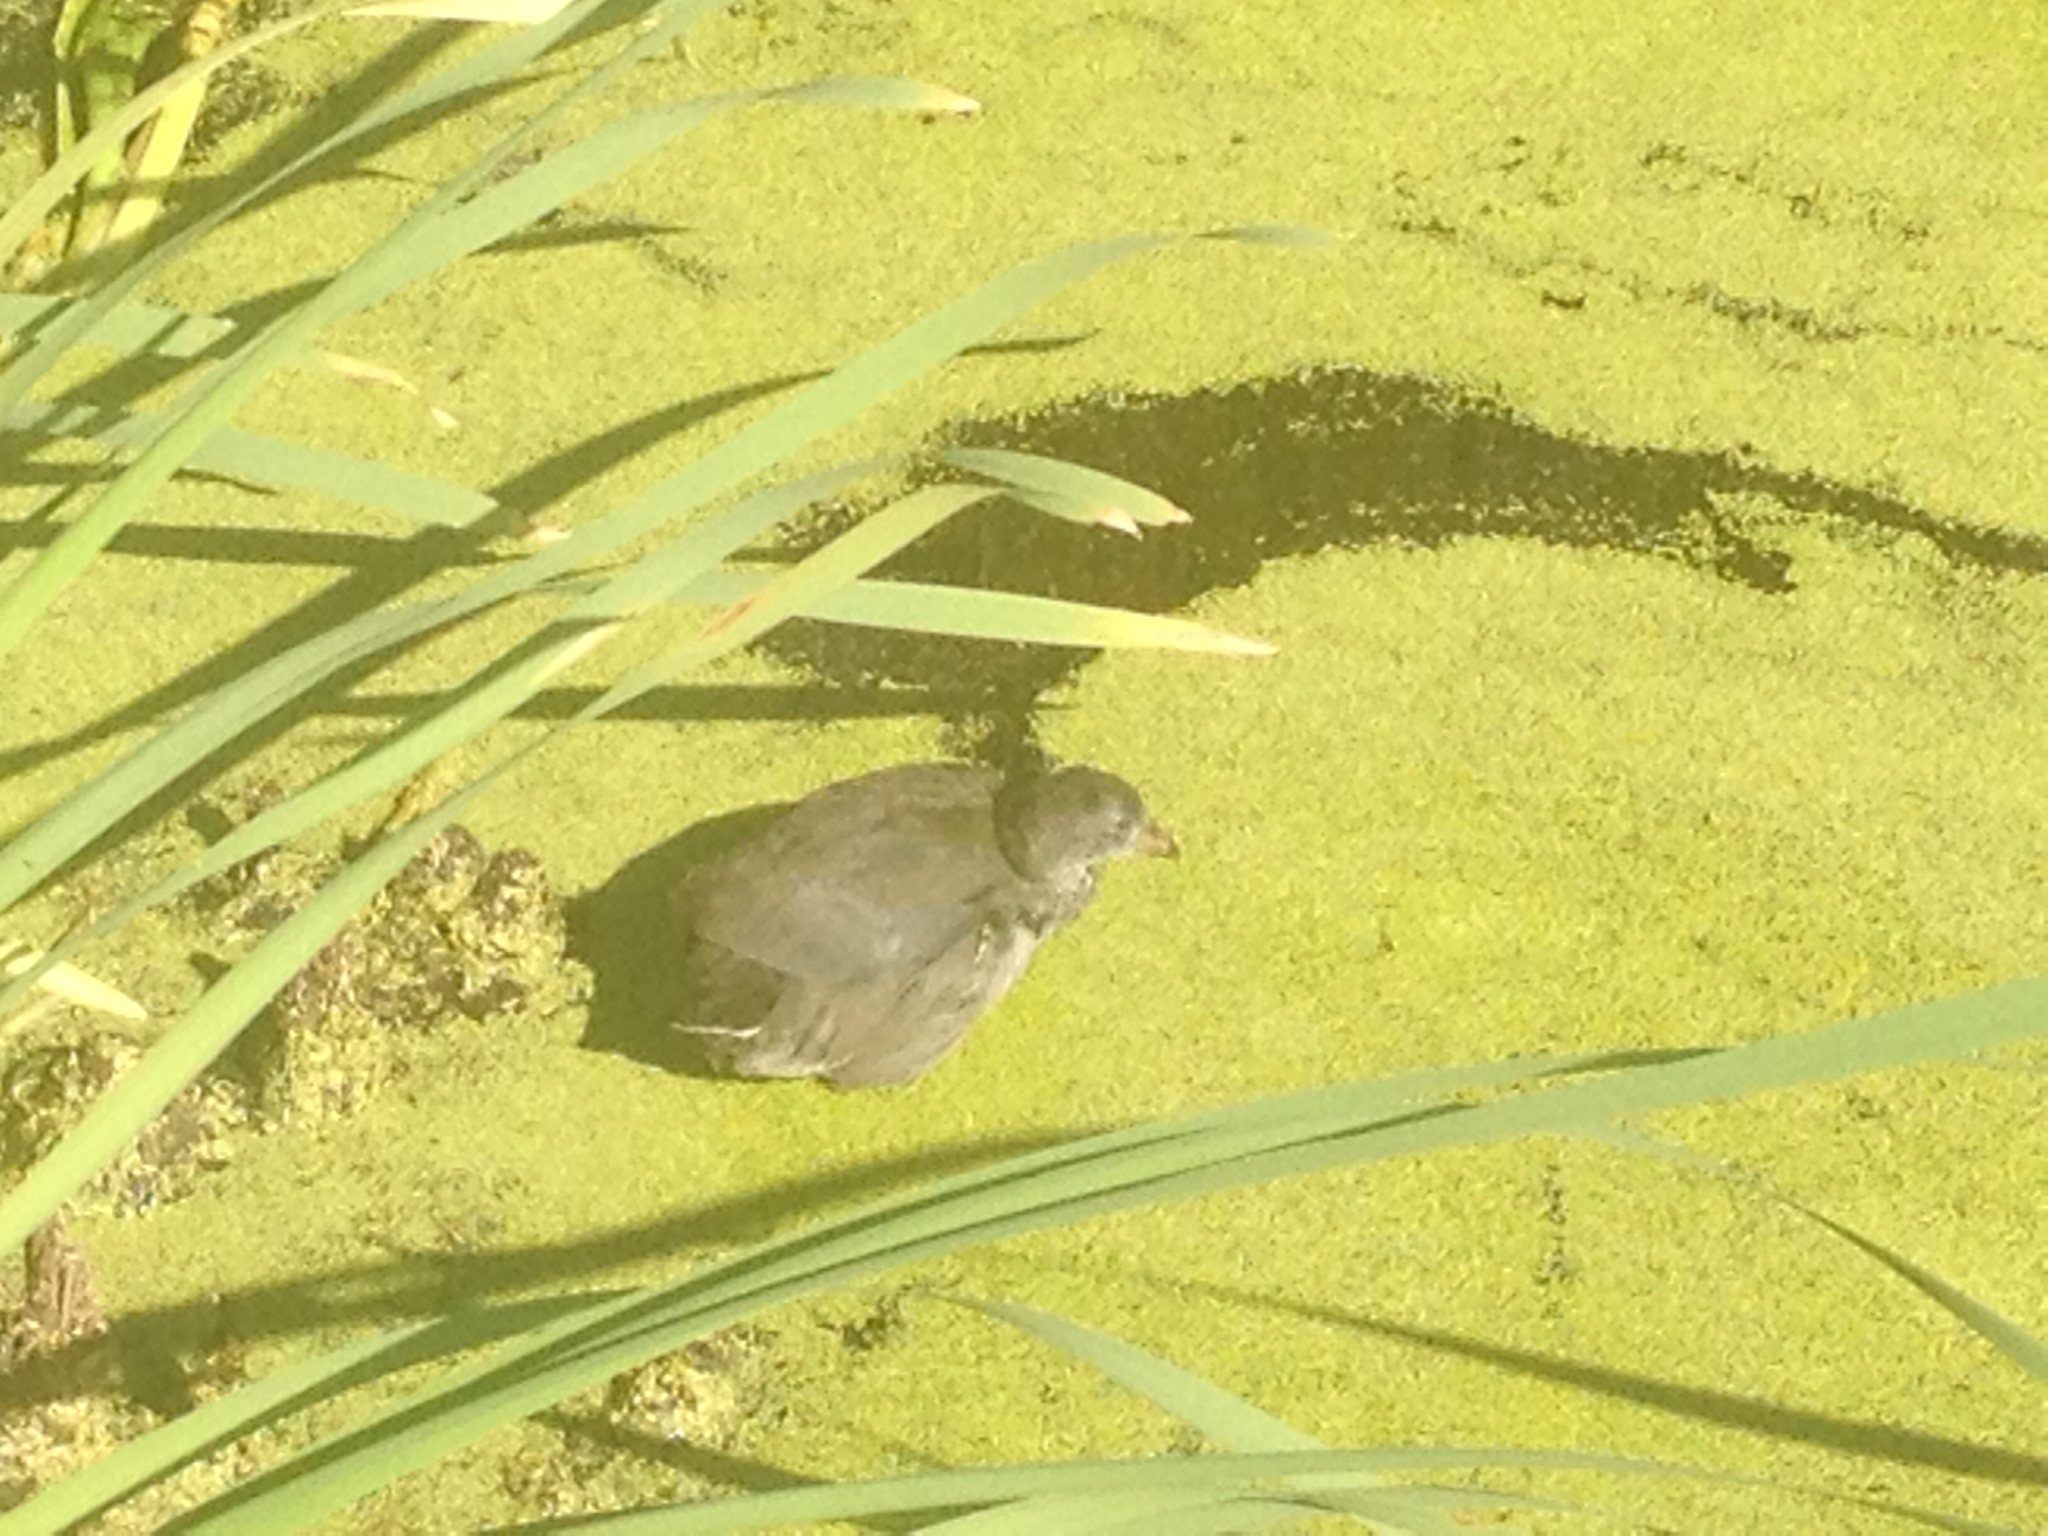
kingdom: Animalia
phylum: Chordata
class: Aves
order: Gruiformes
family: Rallidae
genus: Fulica
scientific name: Fulica americana
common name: American coot
